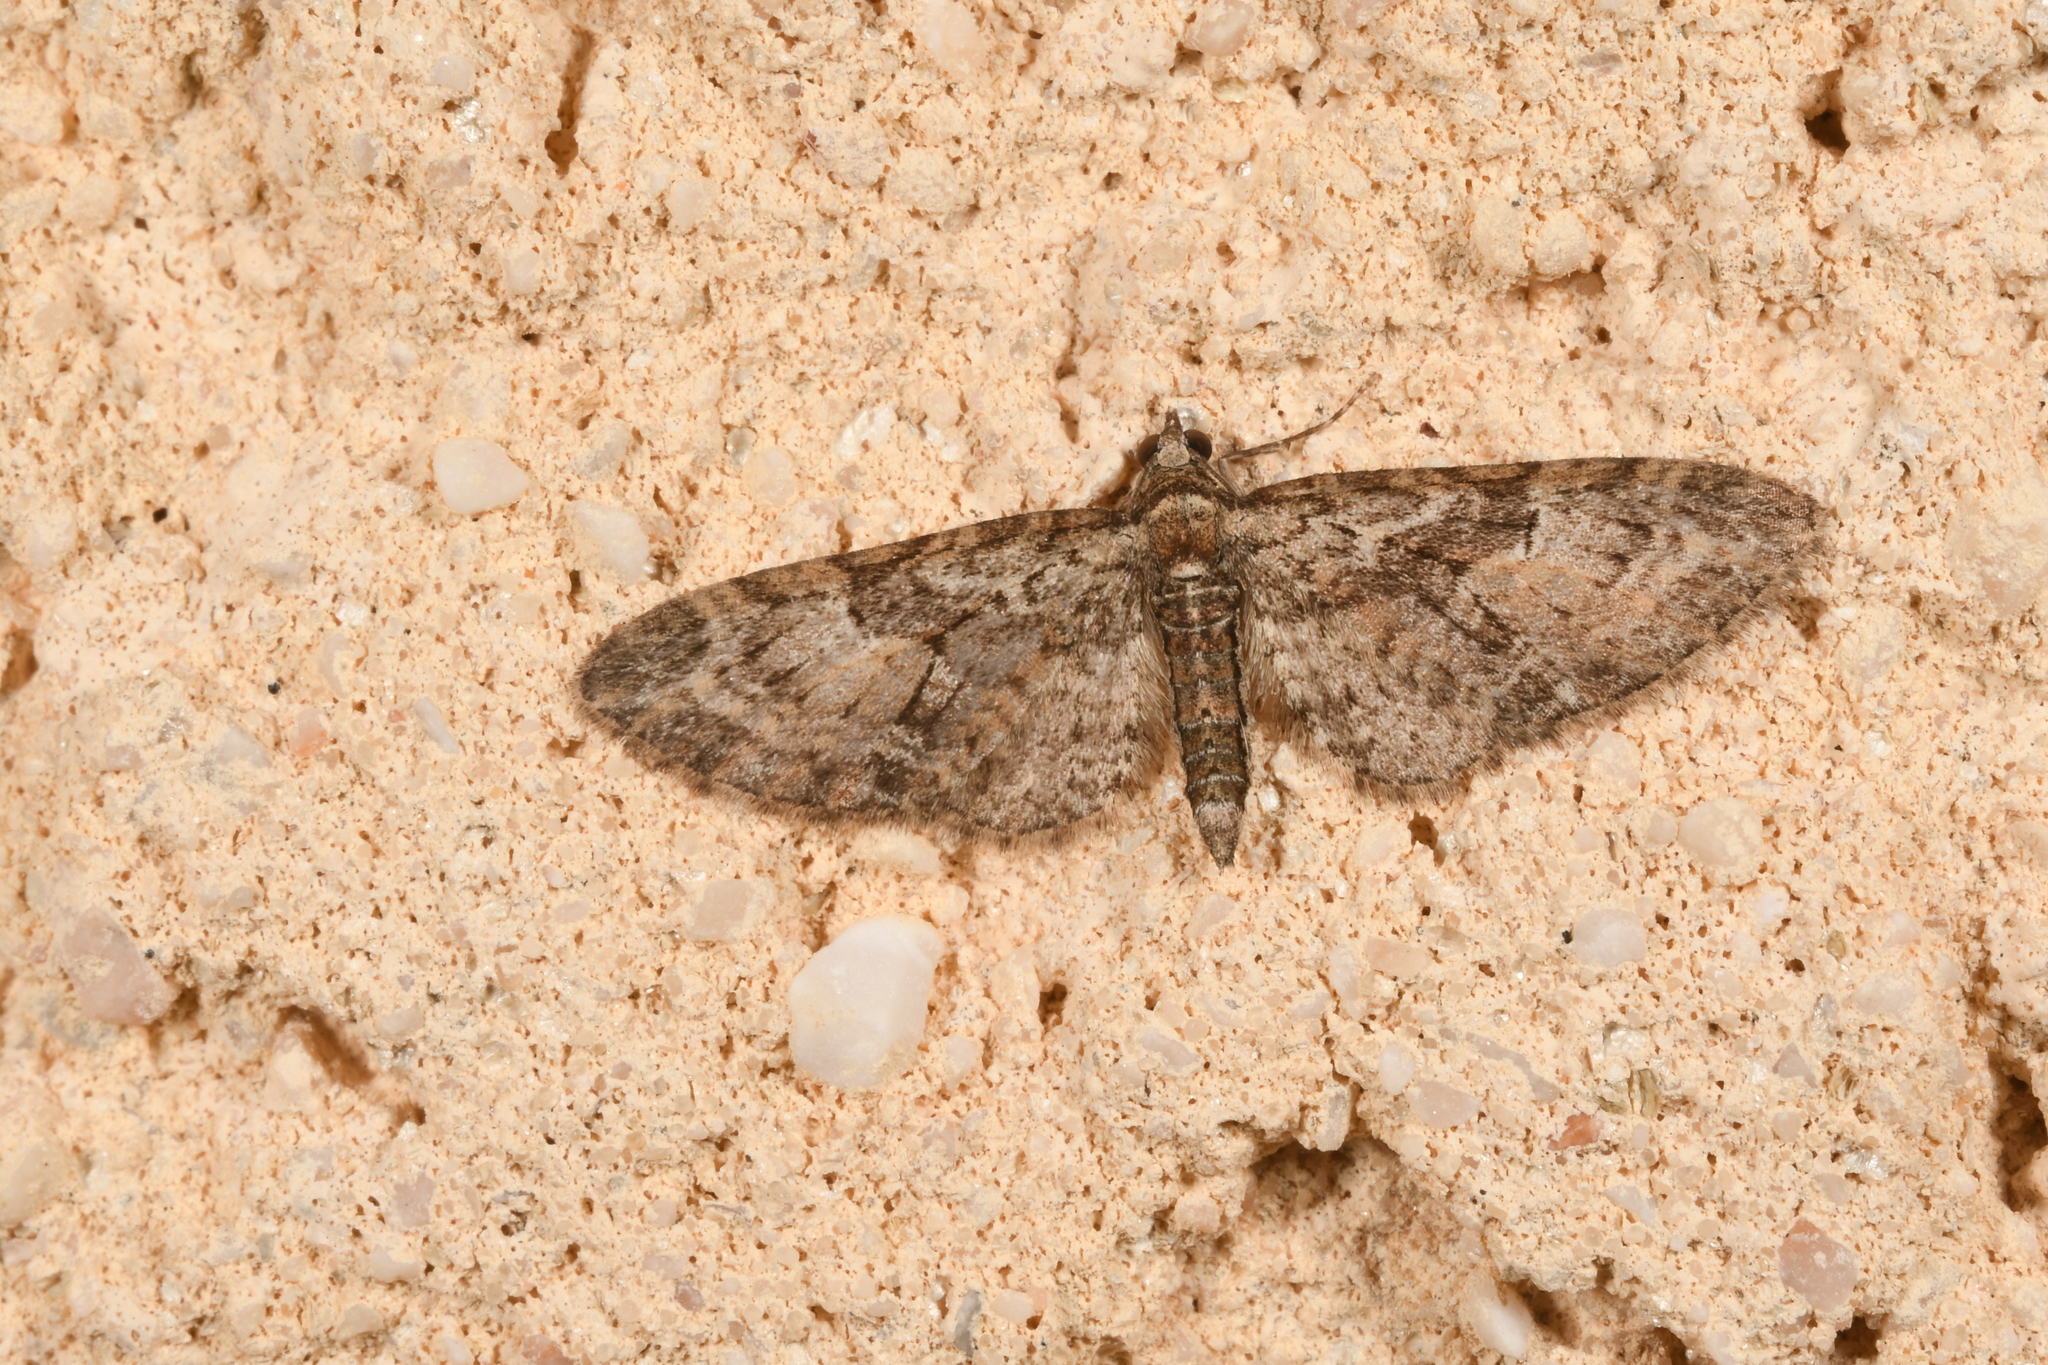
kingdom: Animalia
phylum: Arthropoda
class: Insecta
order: Lepidoptera
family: Geometridae
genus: Eupithecia
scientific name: Eupithecia abbreviata
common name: Brindled pug
